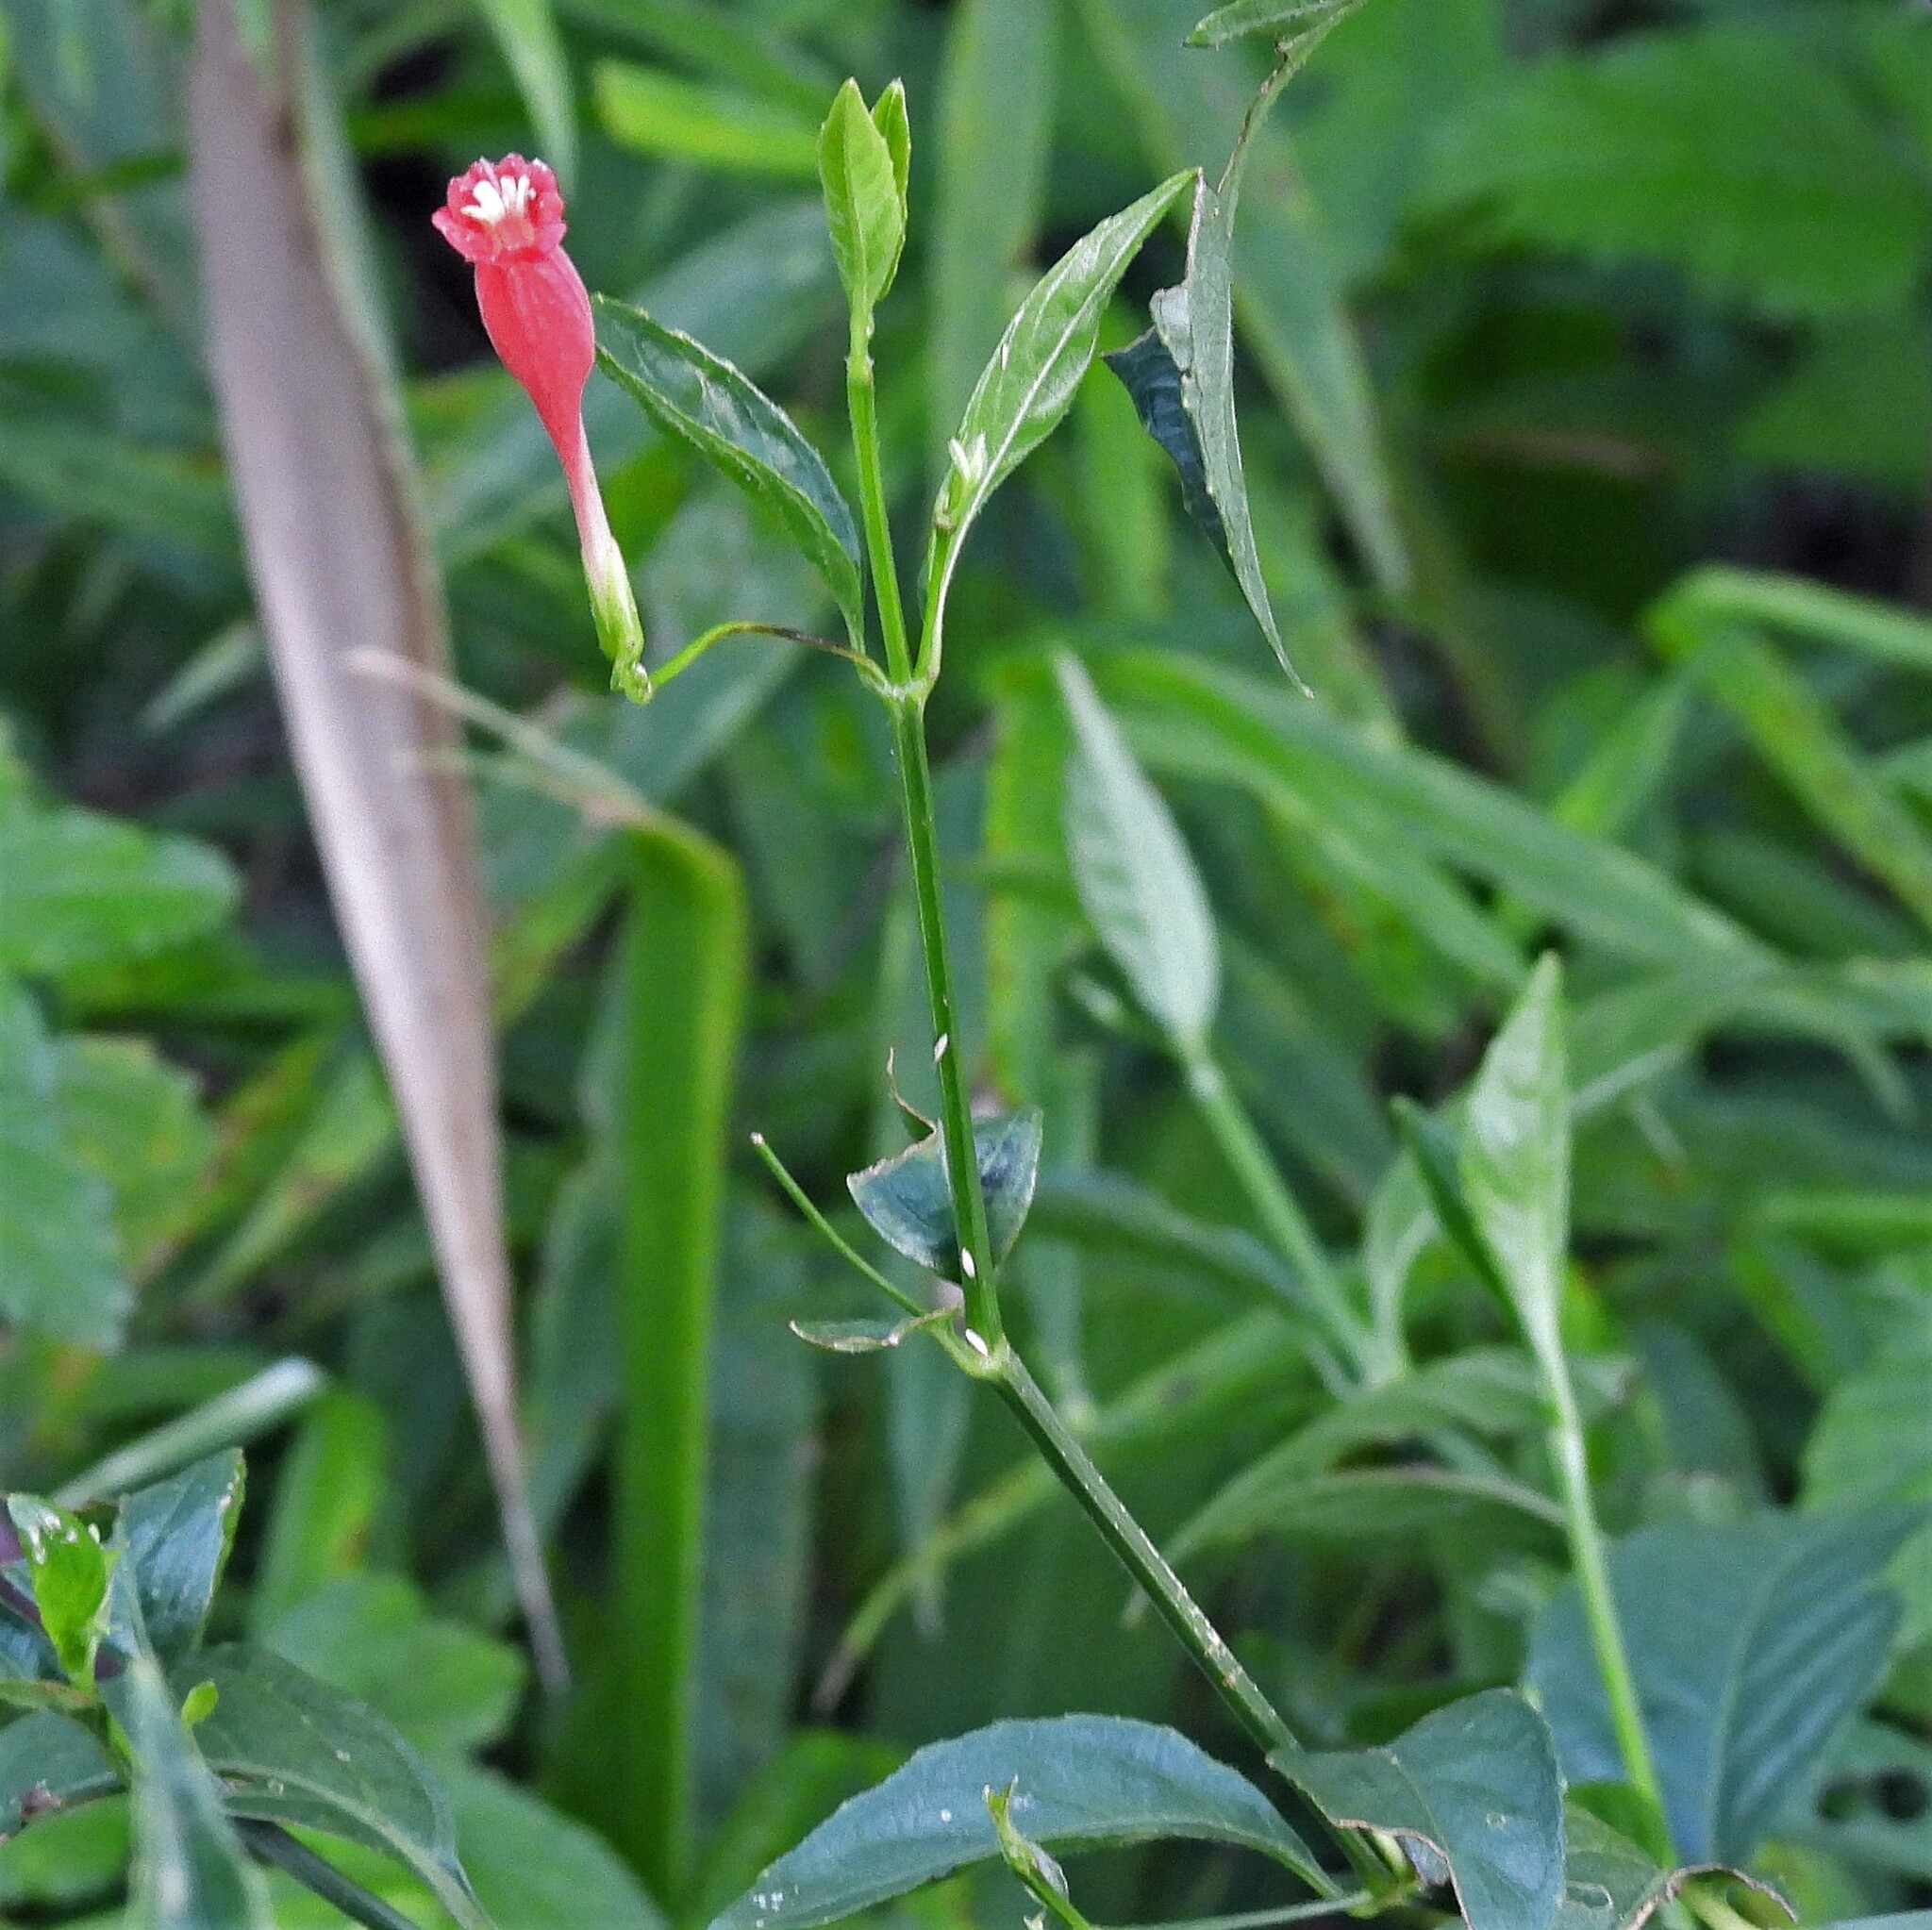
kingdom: Plantae
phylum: Tracheophyta
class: Magnoliopsida
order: Lamiales
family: Acanthaceae
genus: Ruellia
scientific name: Ruellia angustiflora
